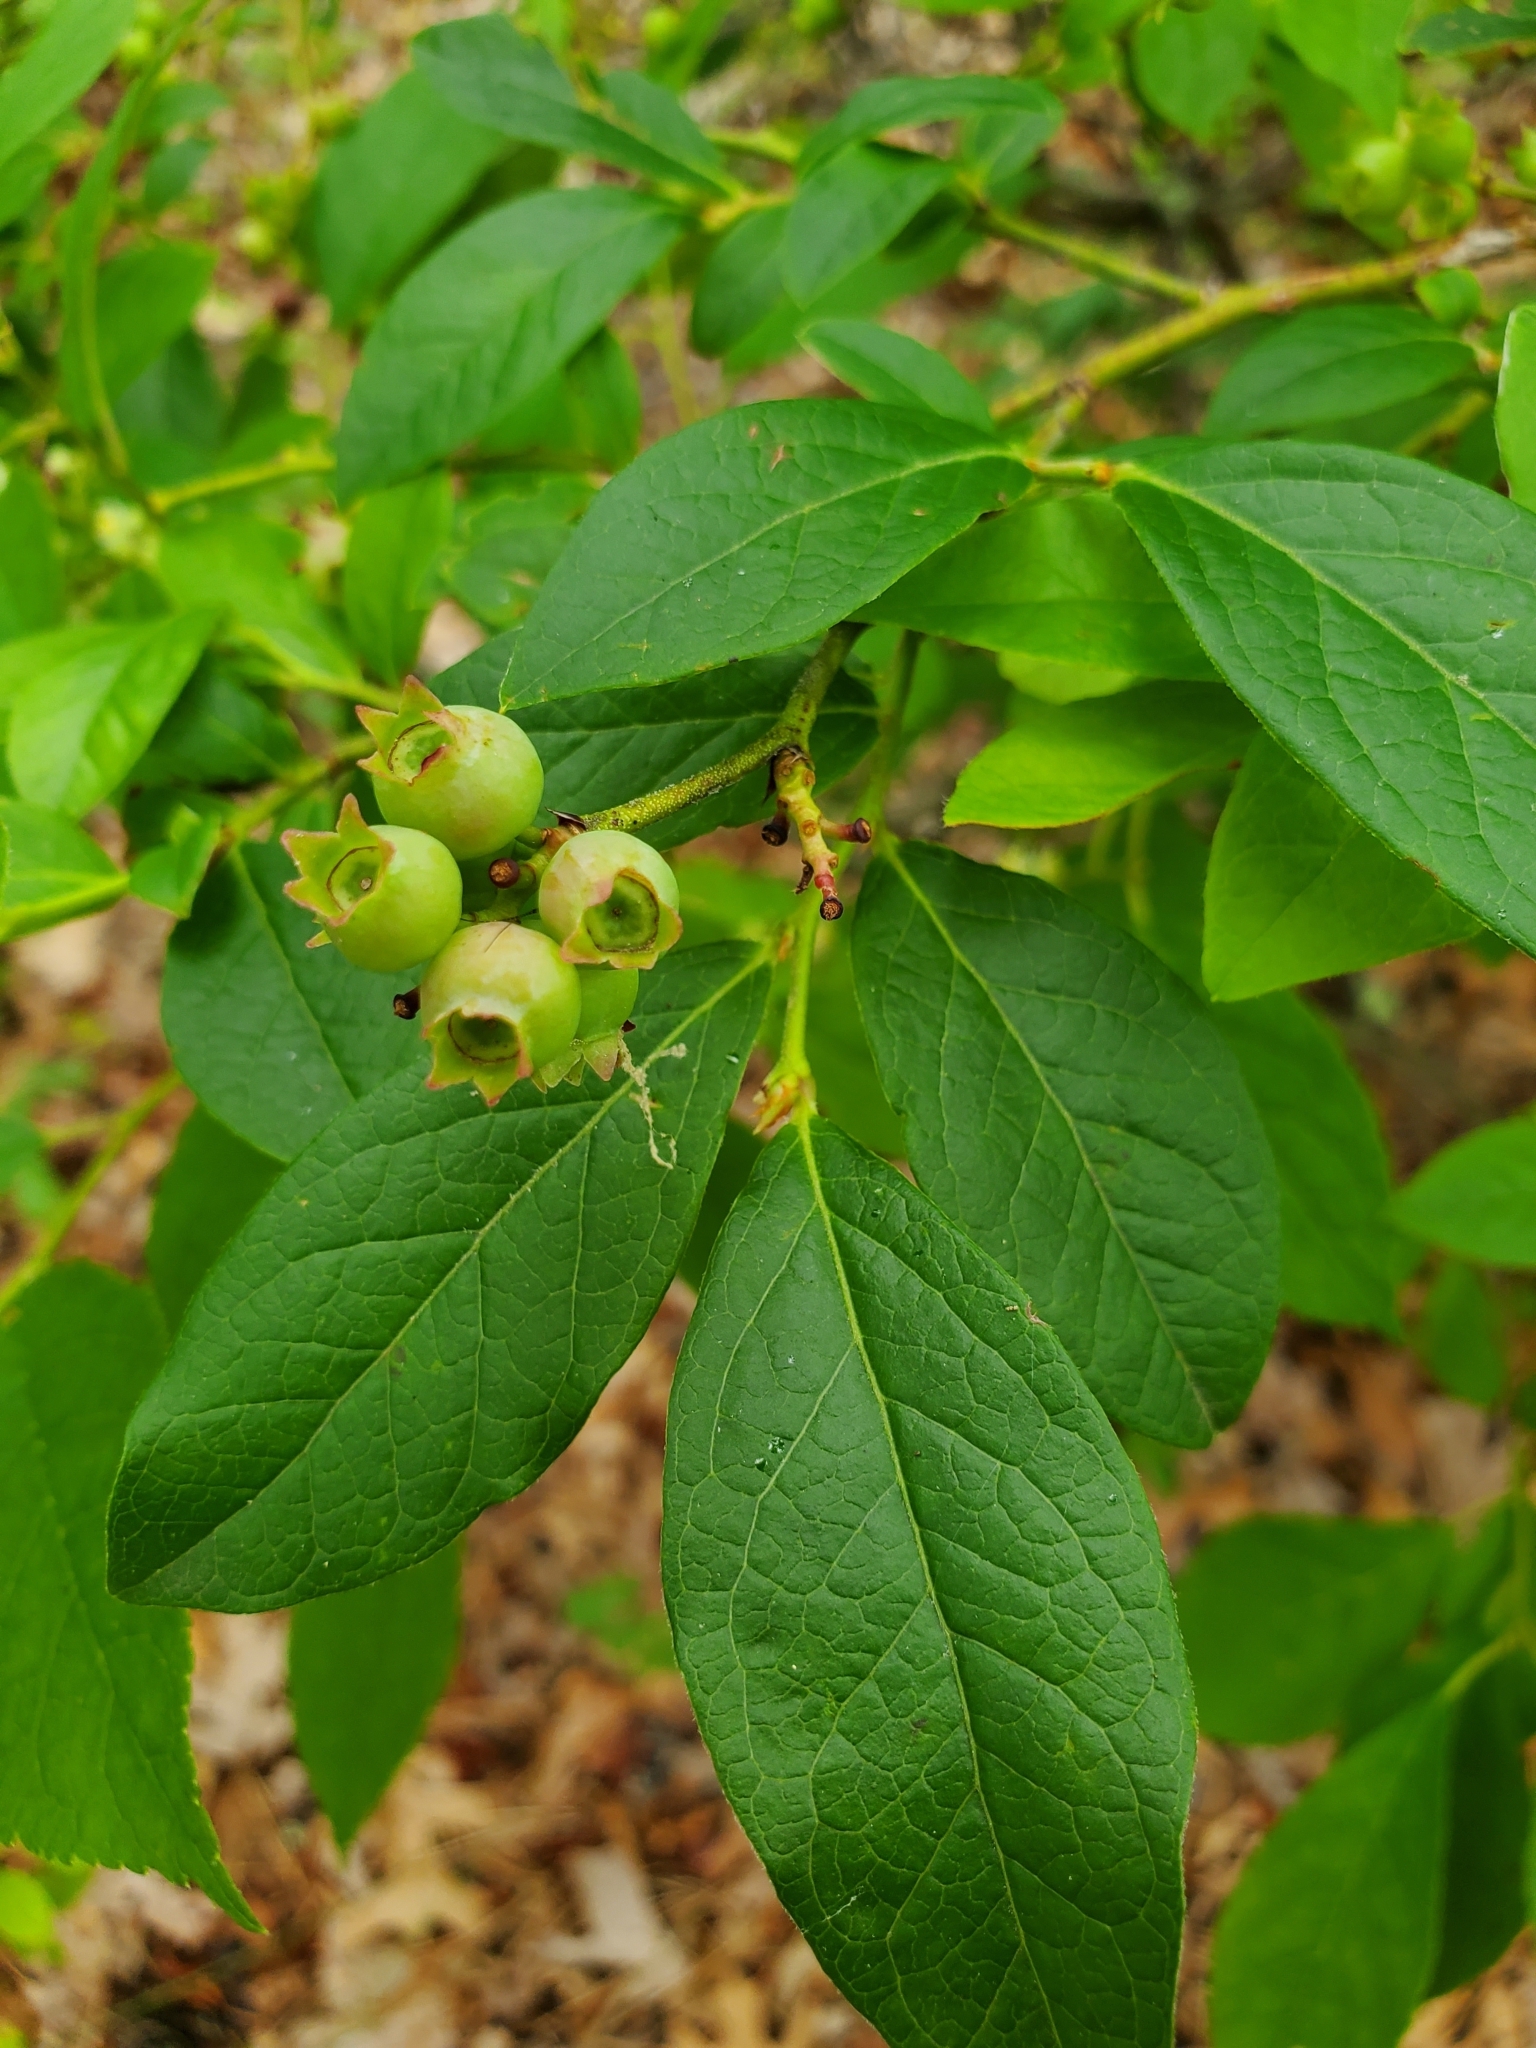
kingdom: Plantae
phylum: Tracheophyta
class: Magnoliopsida
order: Ericales
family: Ericaceae
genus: Vaccinium
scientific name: Vaccinium corymbosum
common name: Blueberry
